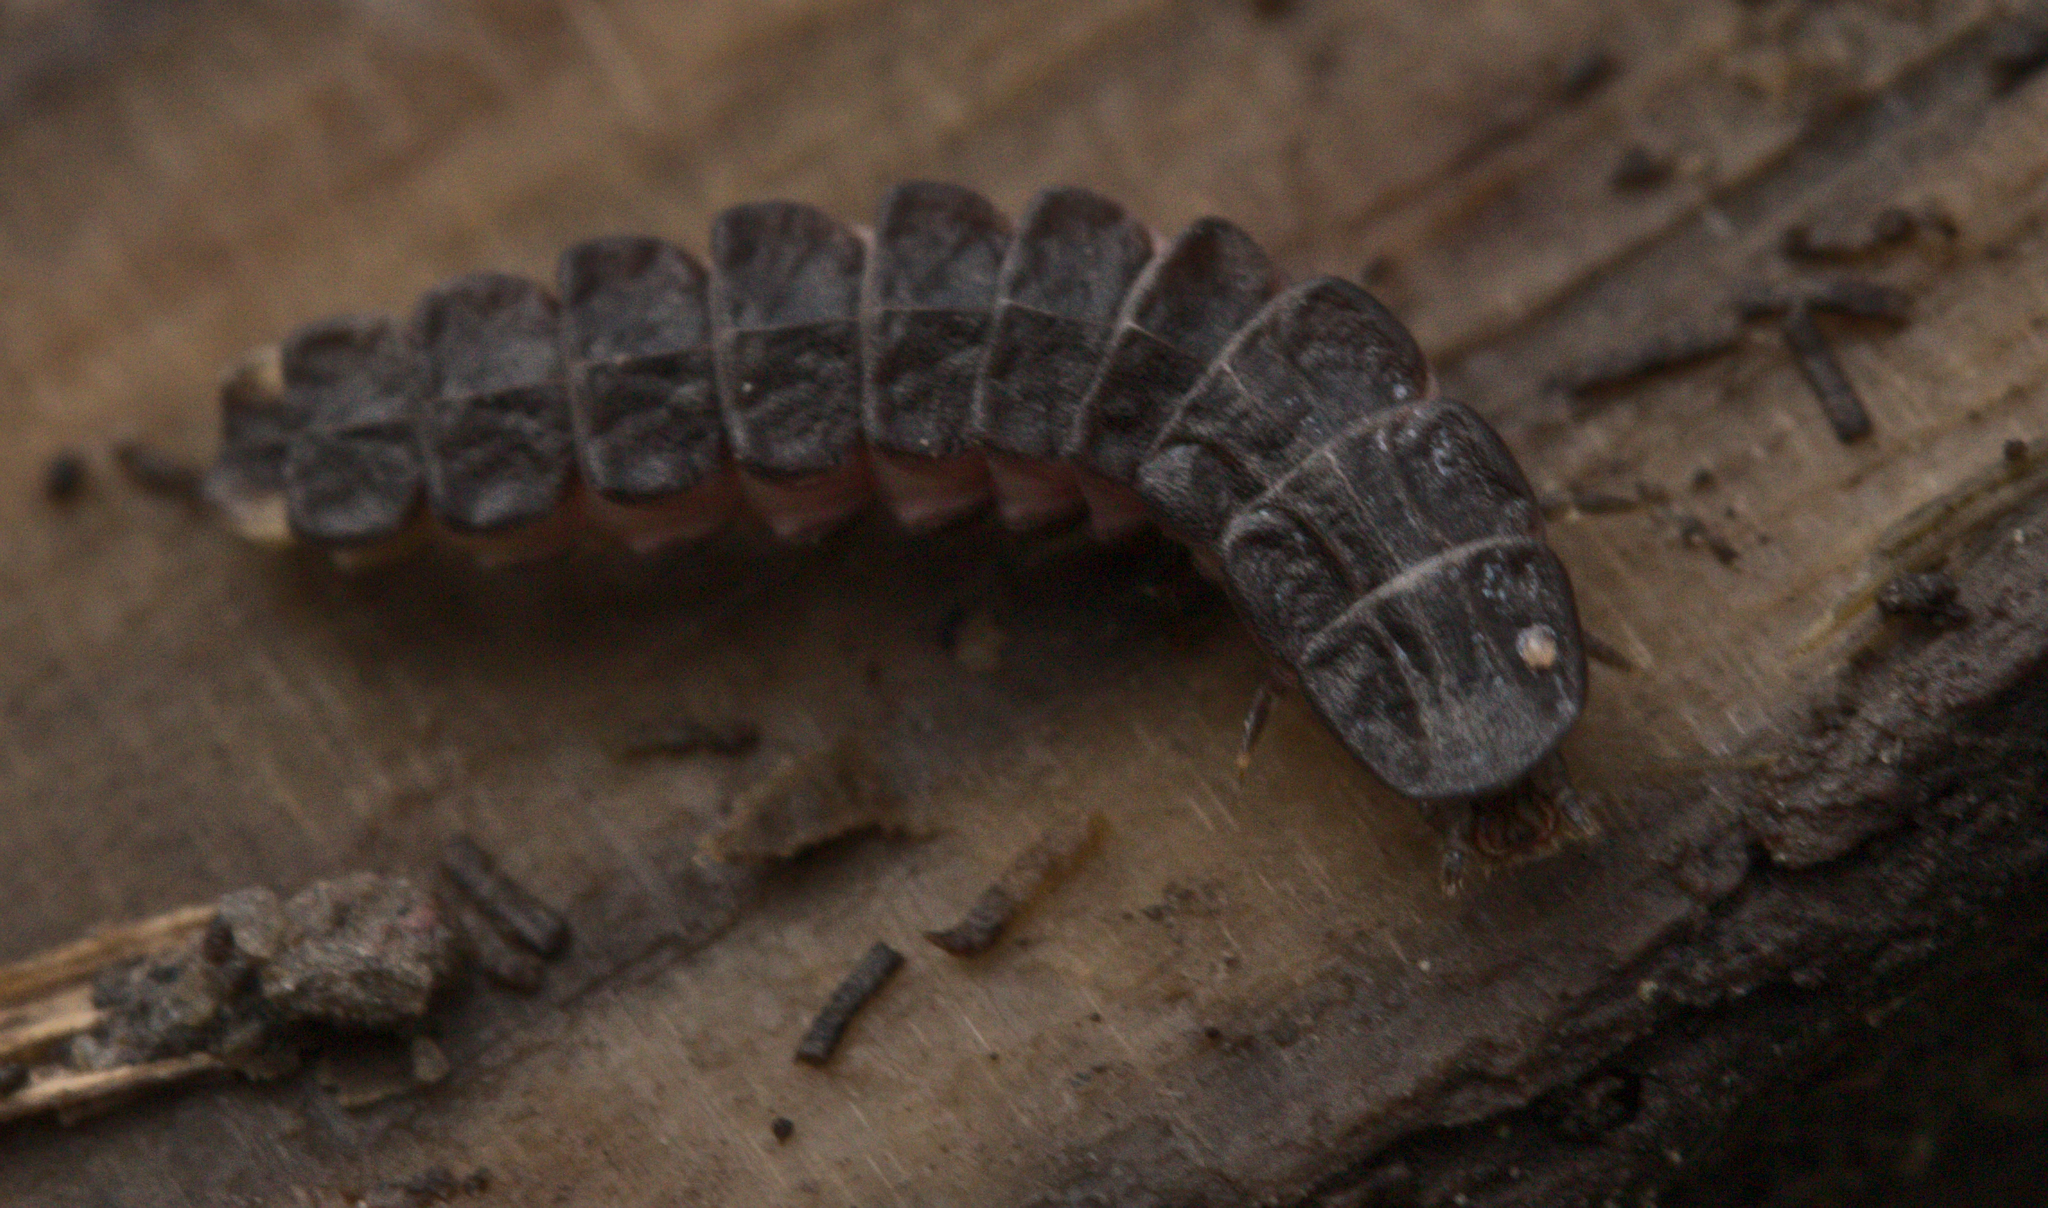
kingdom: Animalia
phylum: Arthropoda
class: Insecta
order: Coleoptera
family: Lampyridae
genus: Phosphaenus
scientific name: Phosphaenus hemipterus
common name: Short-winged firefly
